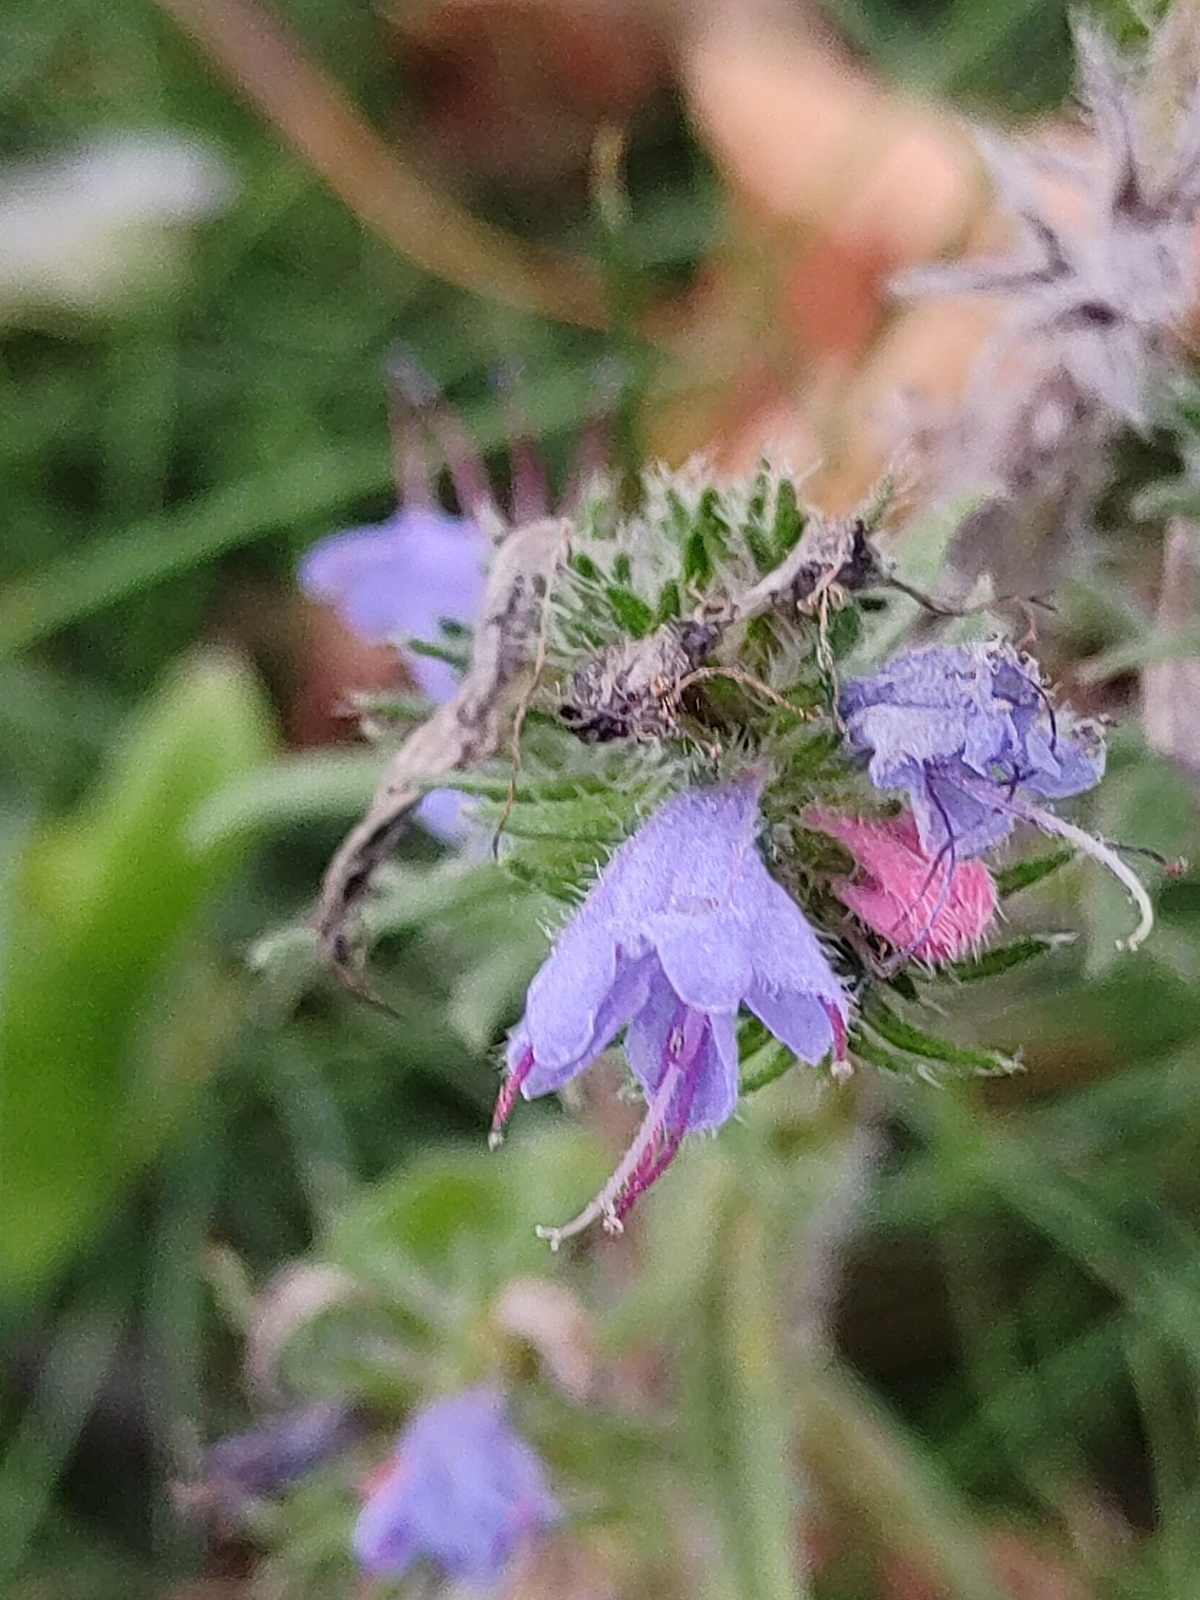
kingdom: Plantae
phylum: Tracheophyta
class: Magnoliopsida
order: Boraginales
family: Boraginaceae
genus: Echium
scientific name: Echium vulgare
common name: Common viper's bugloss
